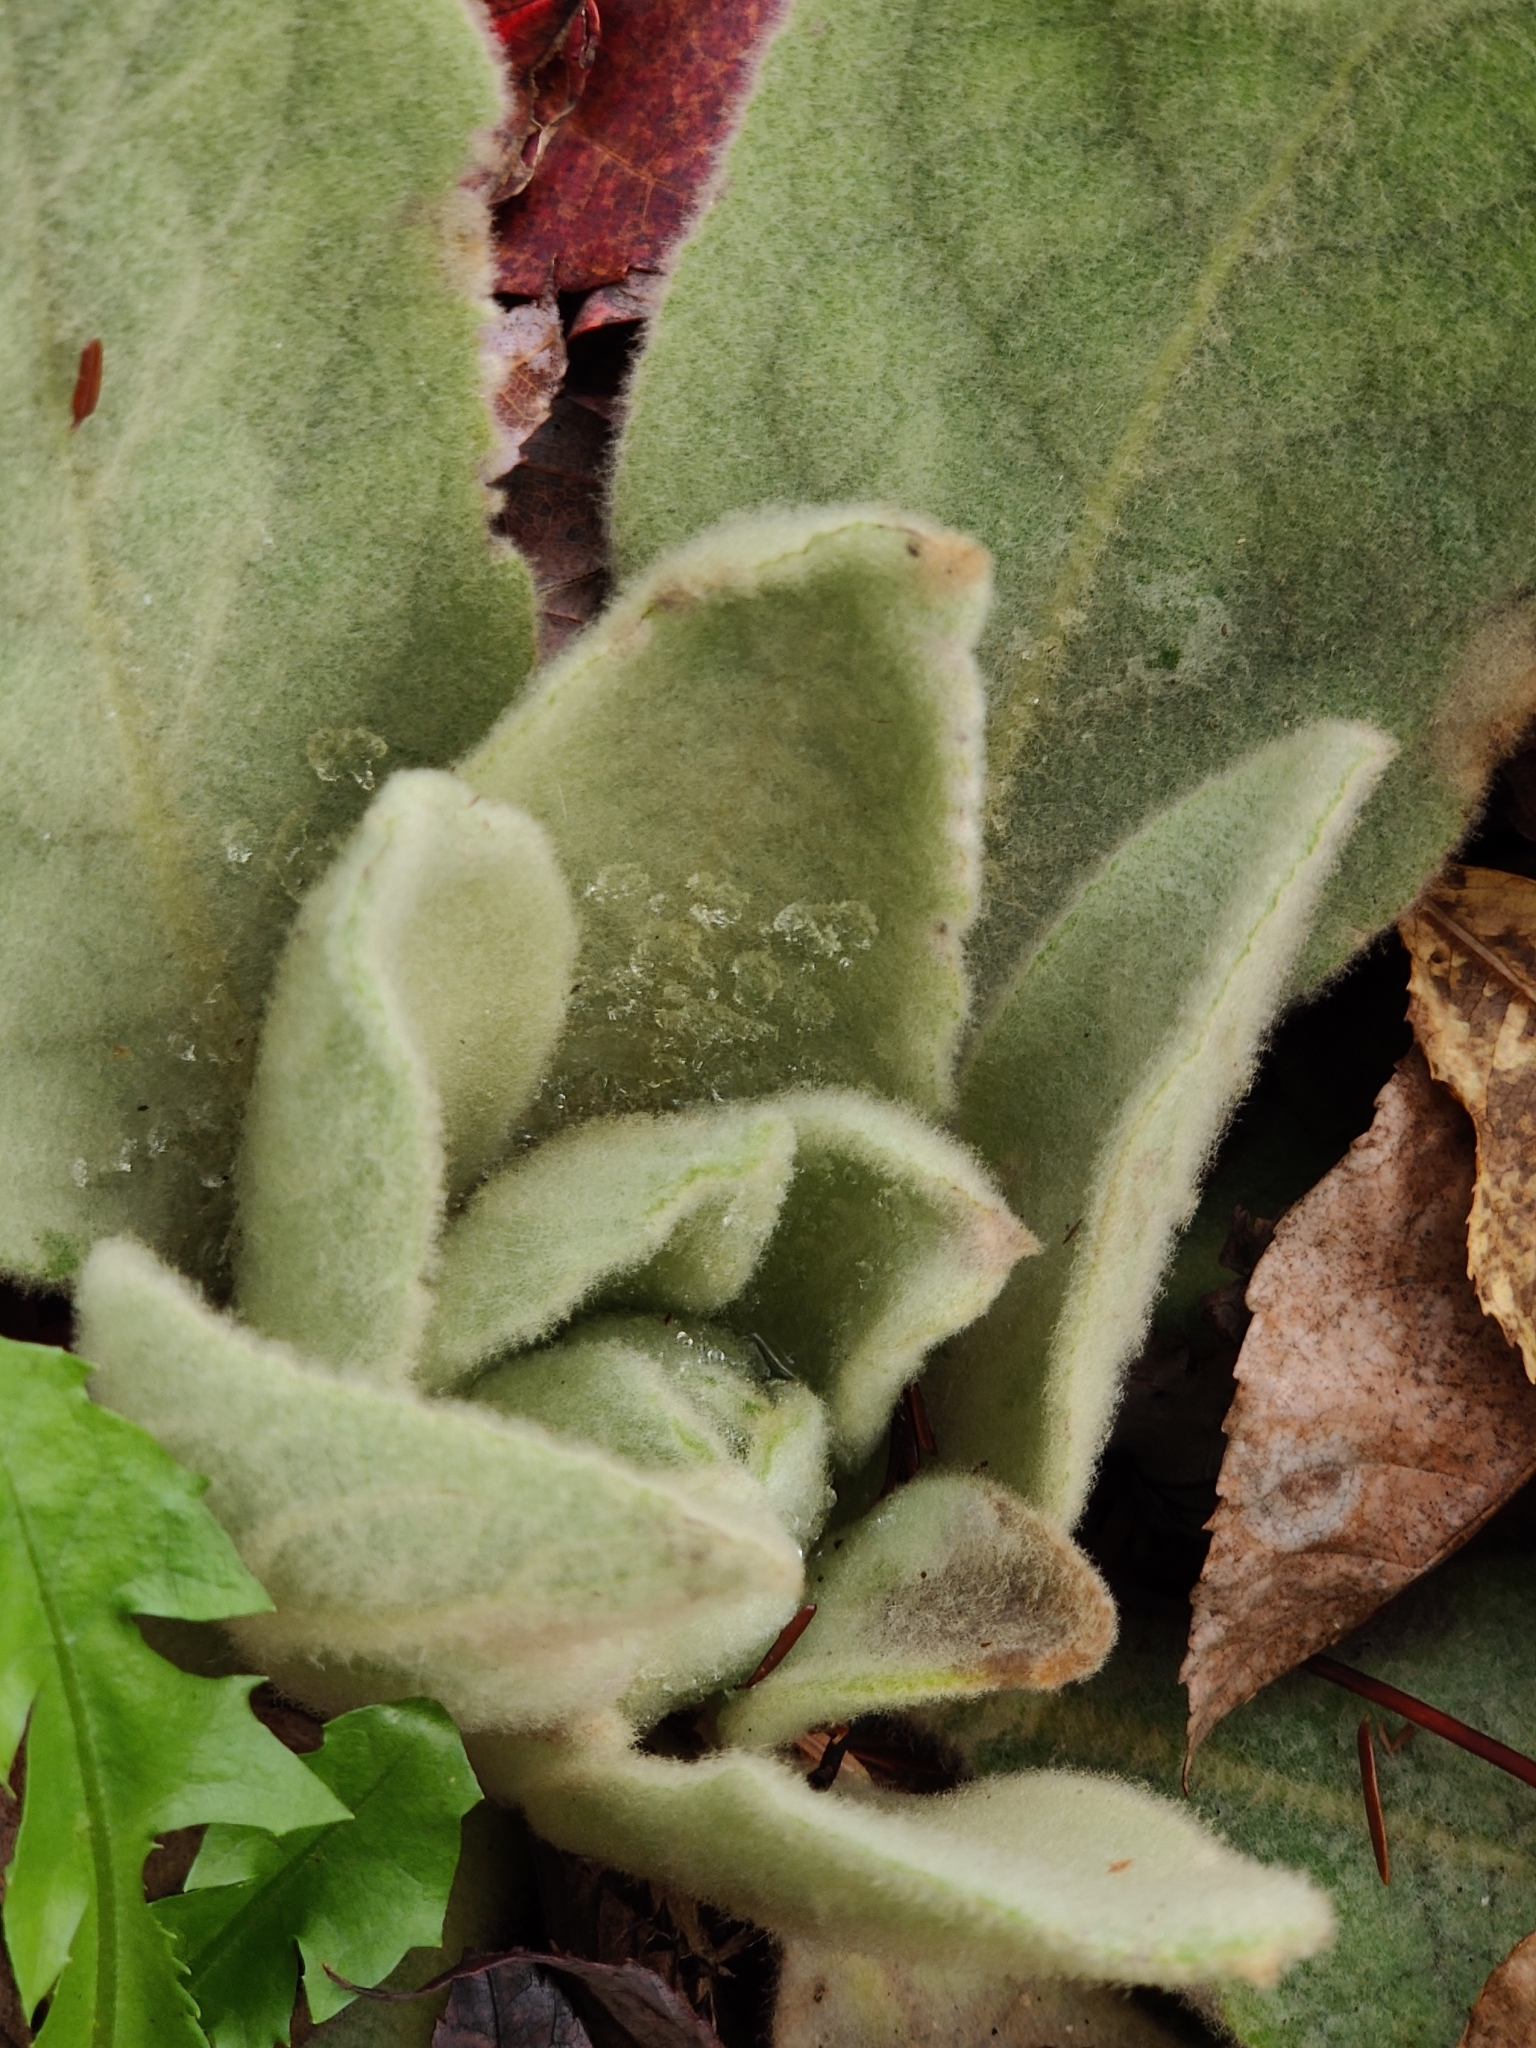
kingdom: Plantae
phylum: Tracheophyta
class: Magnoliopsida
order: Lamiales
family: Scrophulariaceae
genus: Verbascum
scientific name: Verbascum thapsus
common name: Common mullein
